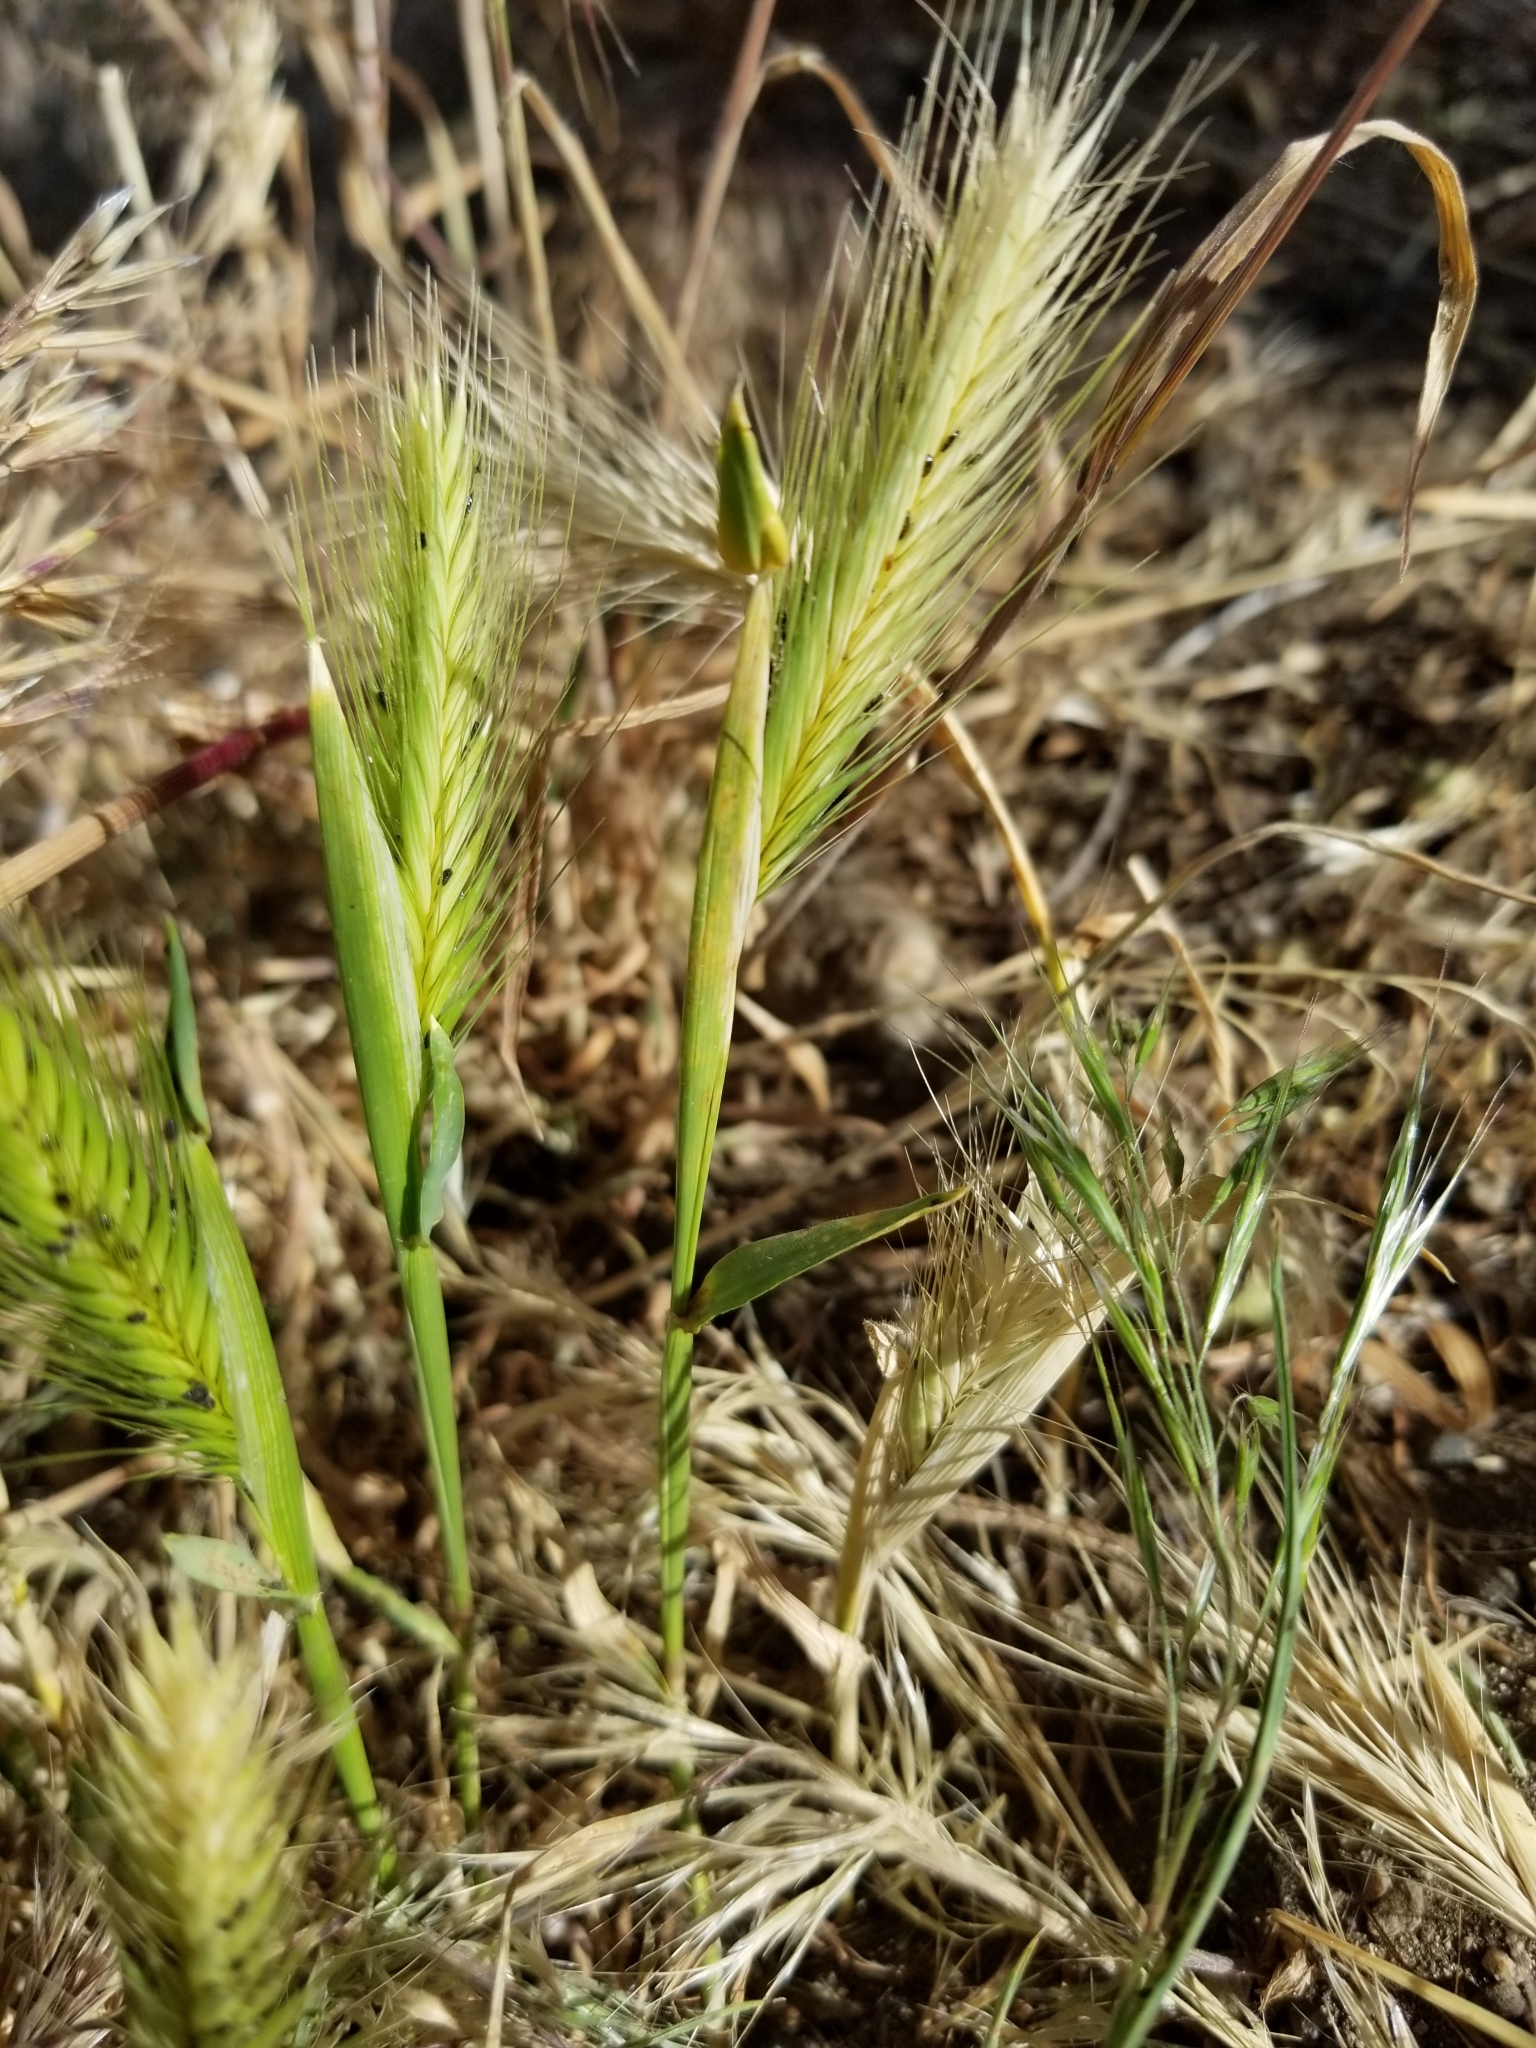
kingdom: Plantae
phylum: Tracheophyta
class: Liliopsida
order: Poales
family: Poaceae
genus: Hordeum
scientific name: Hordeum murinum
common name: Wall barley
